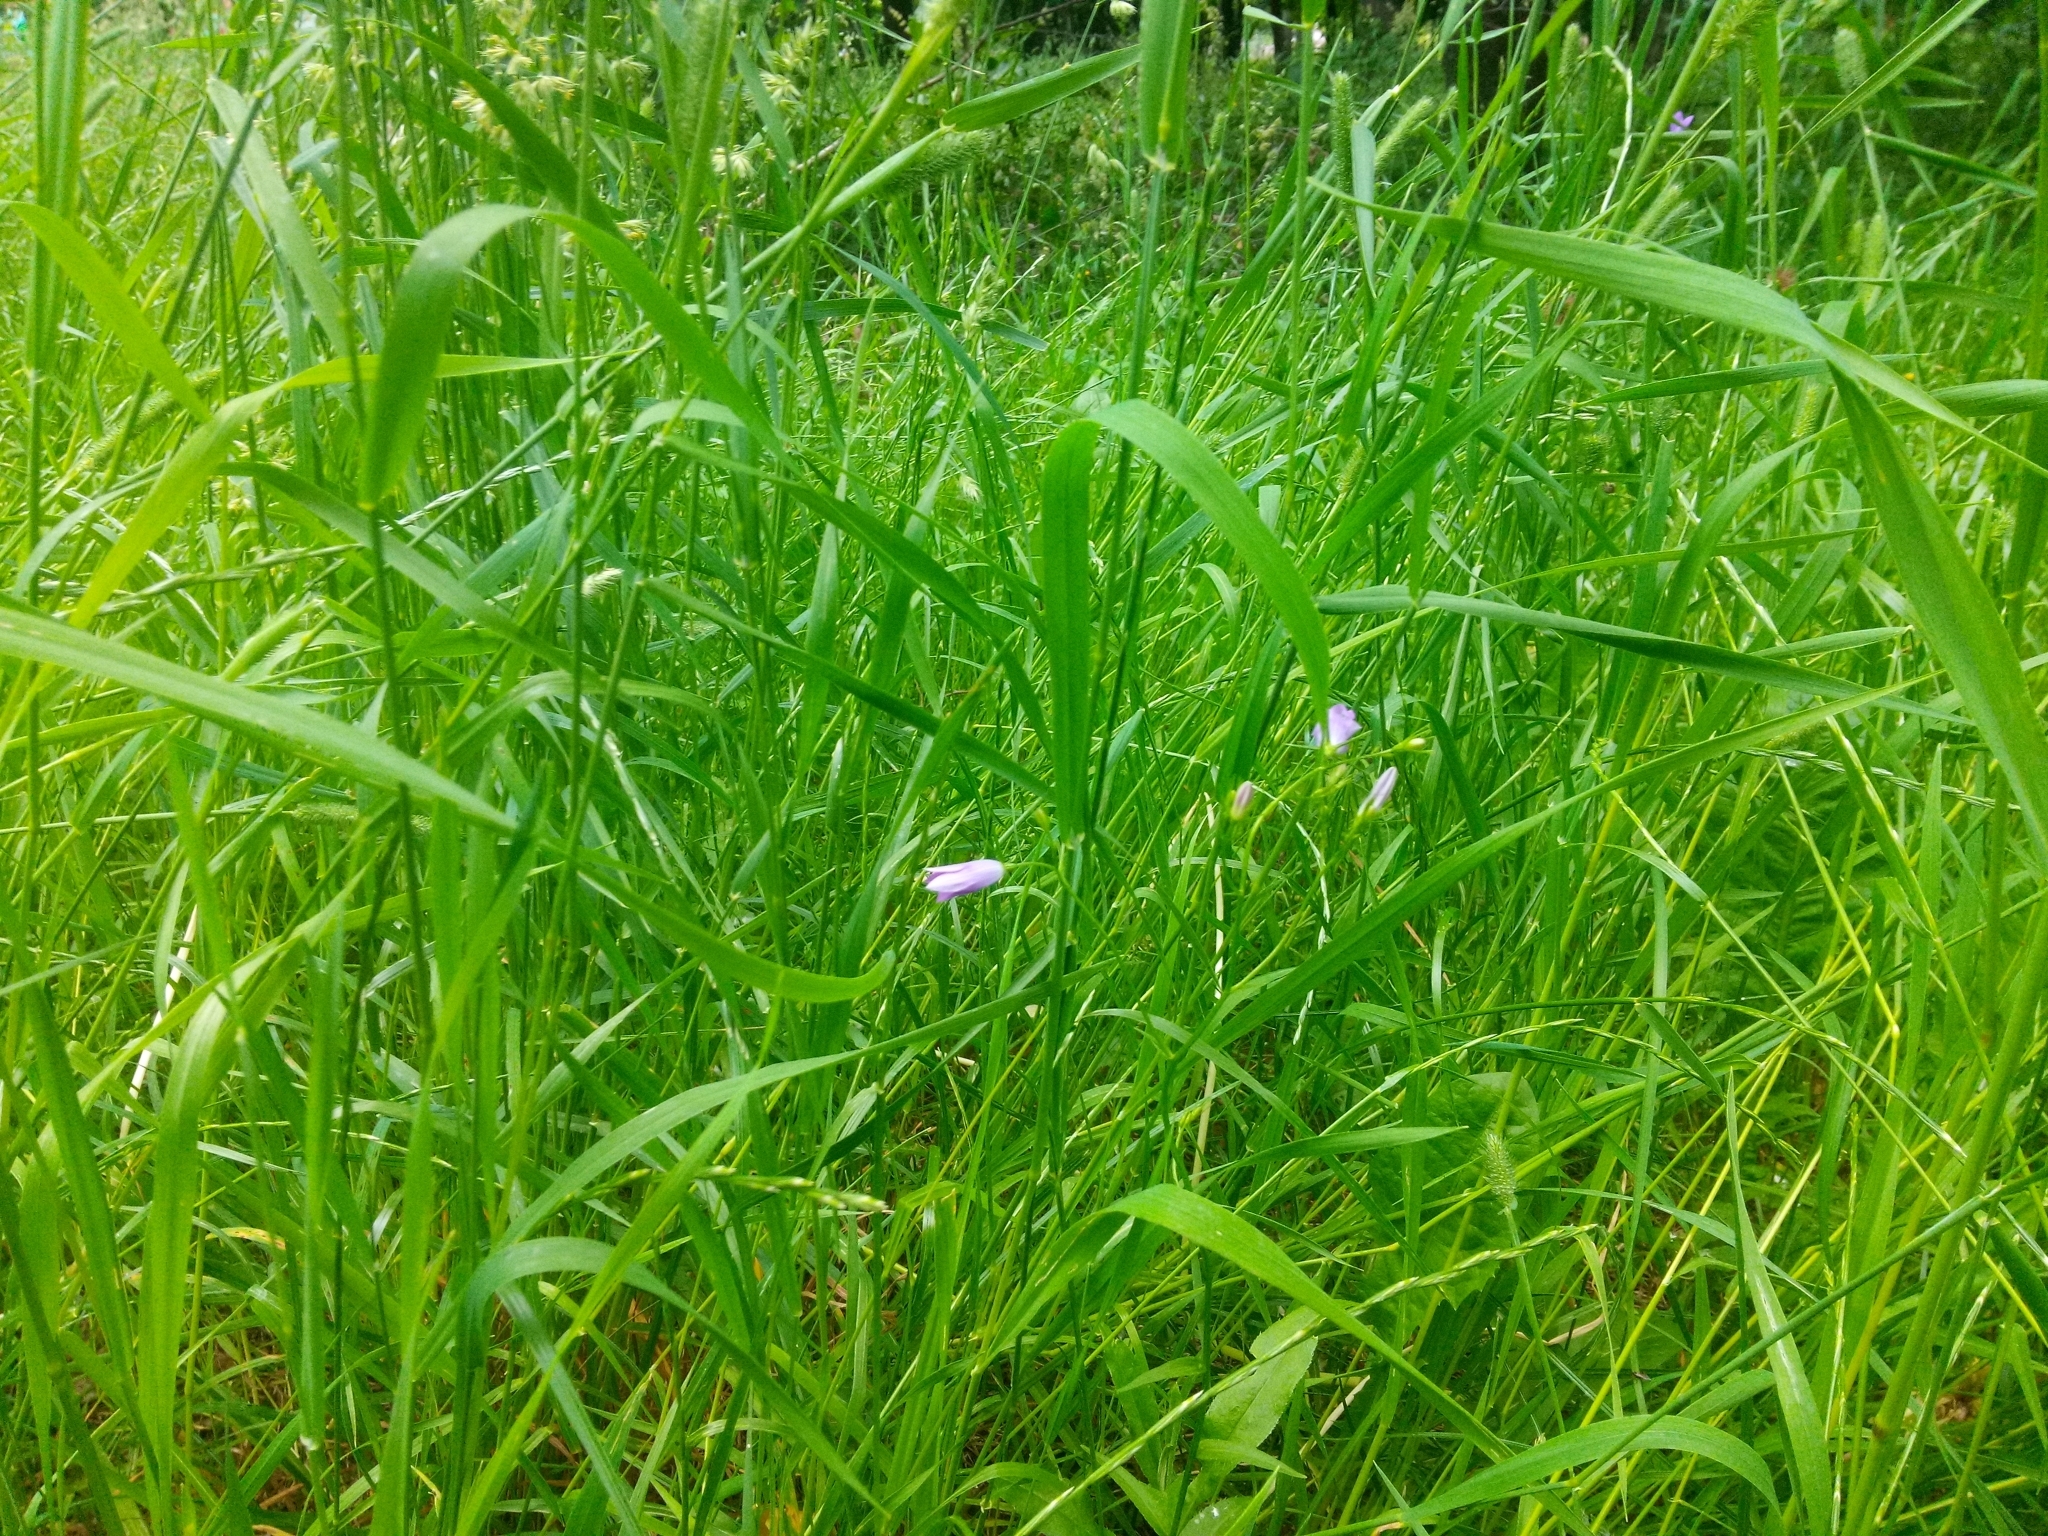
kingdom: Plantae
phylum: Tracheophyta
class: Magnoliopsida
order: Asterales
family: Campanulaceae
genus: Campanula
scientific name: Campanula patula
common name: Spreading bellflower
